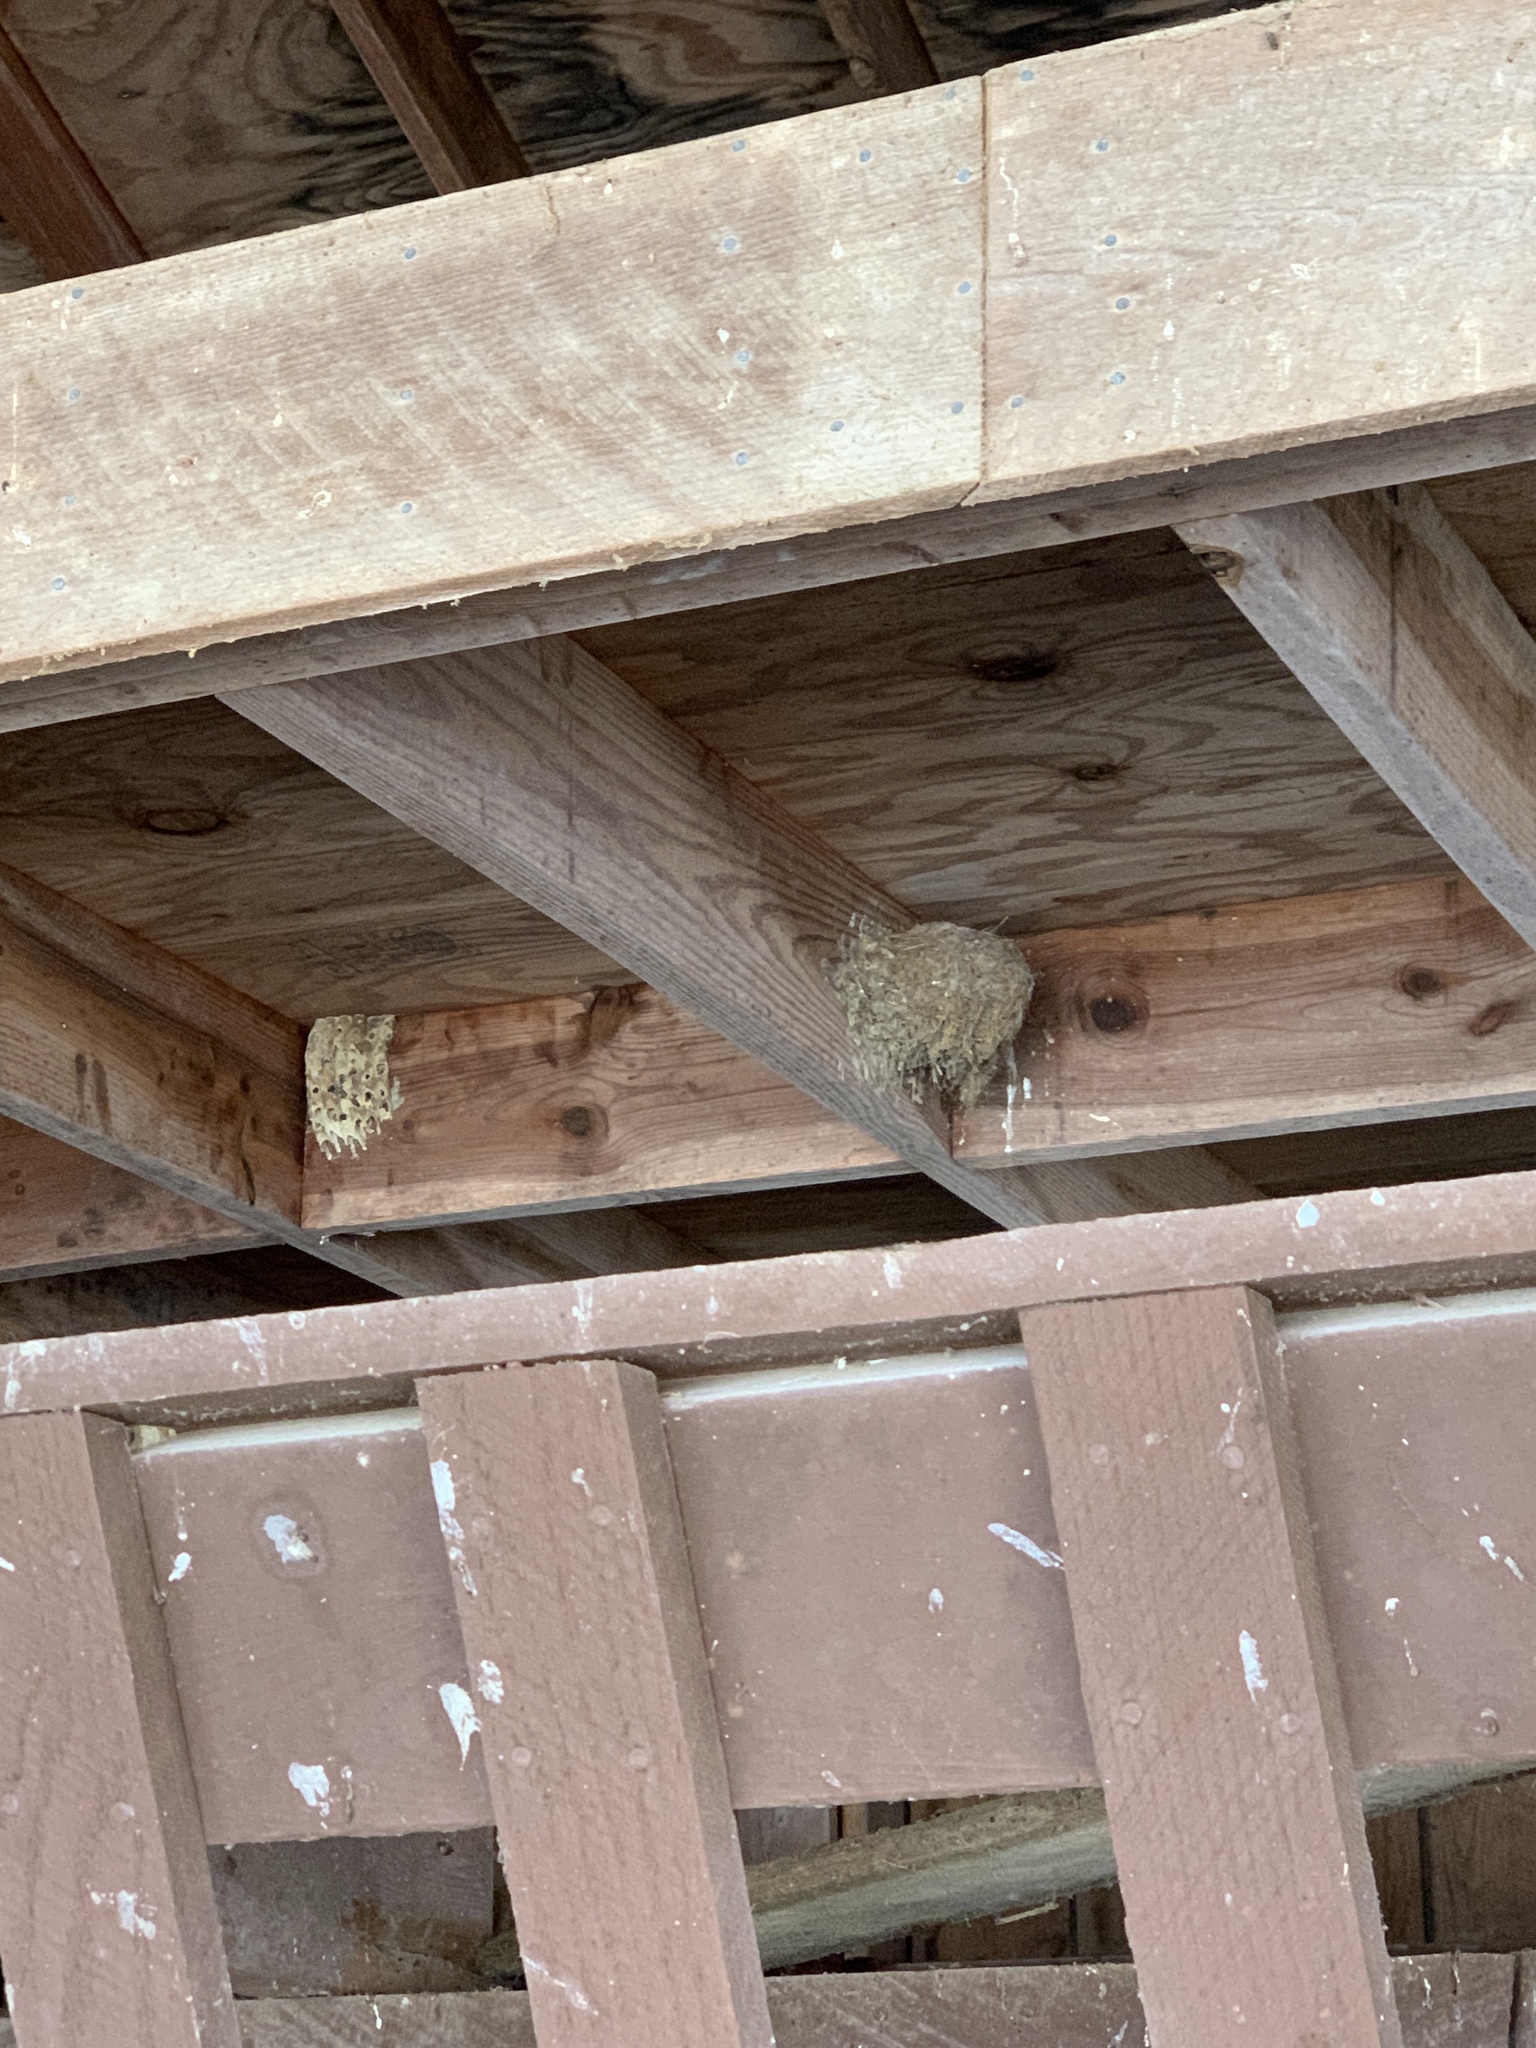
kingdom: Animalia
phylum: Chordata
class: Aves
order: Passeriformes
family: Hirundinidae
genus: Hirundo
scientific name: Hirundo rustica
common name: Barn swallow
